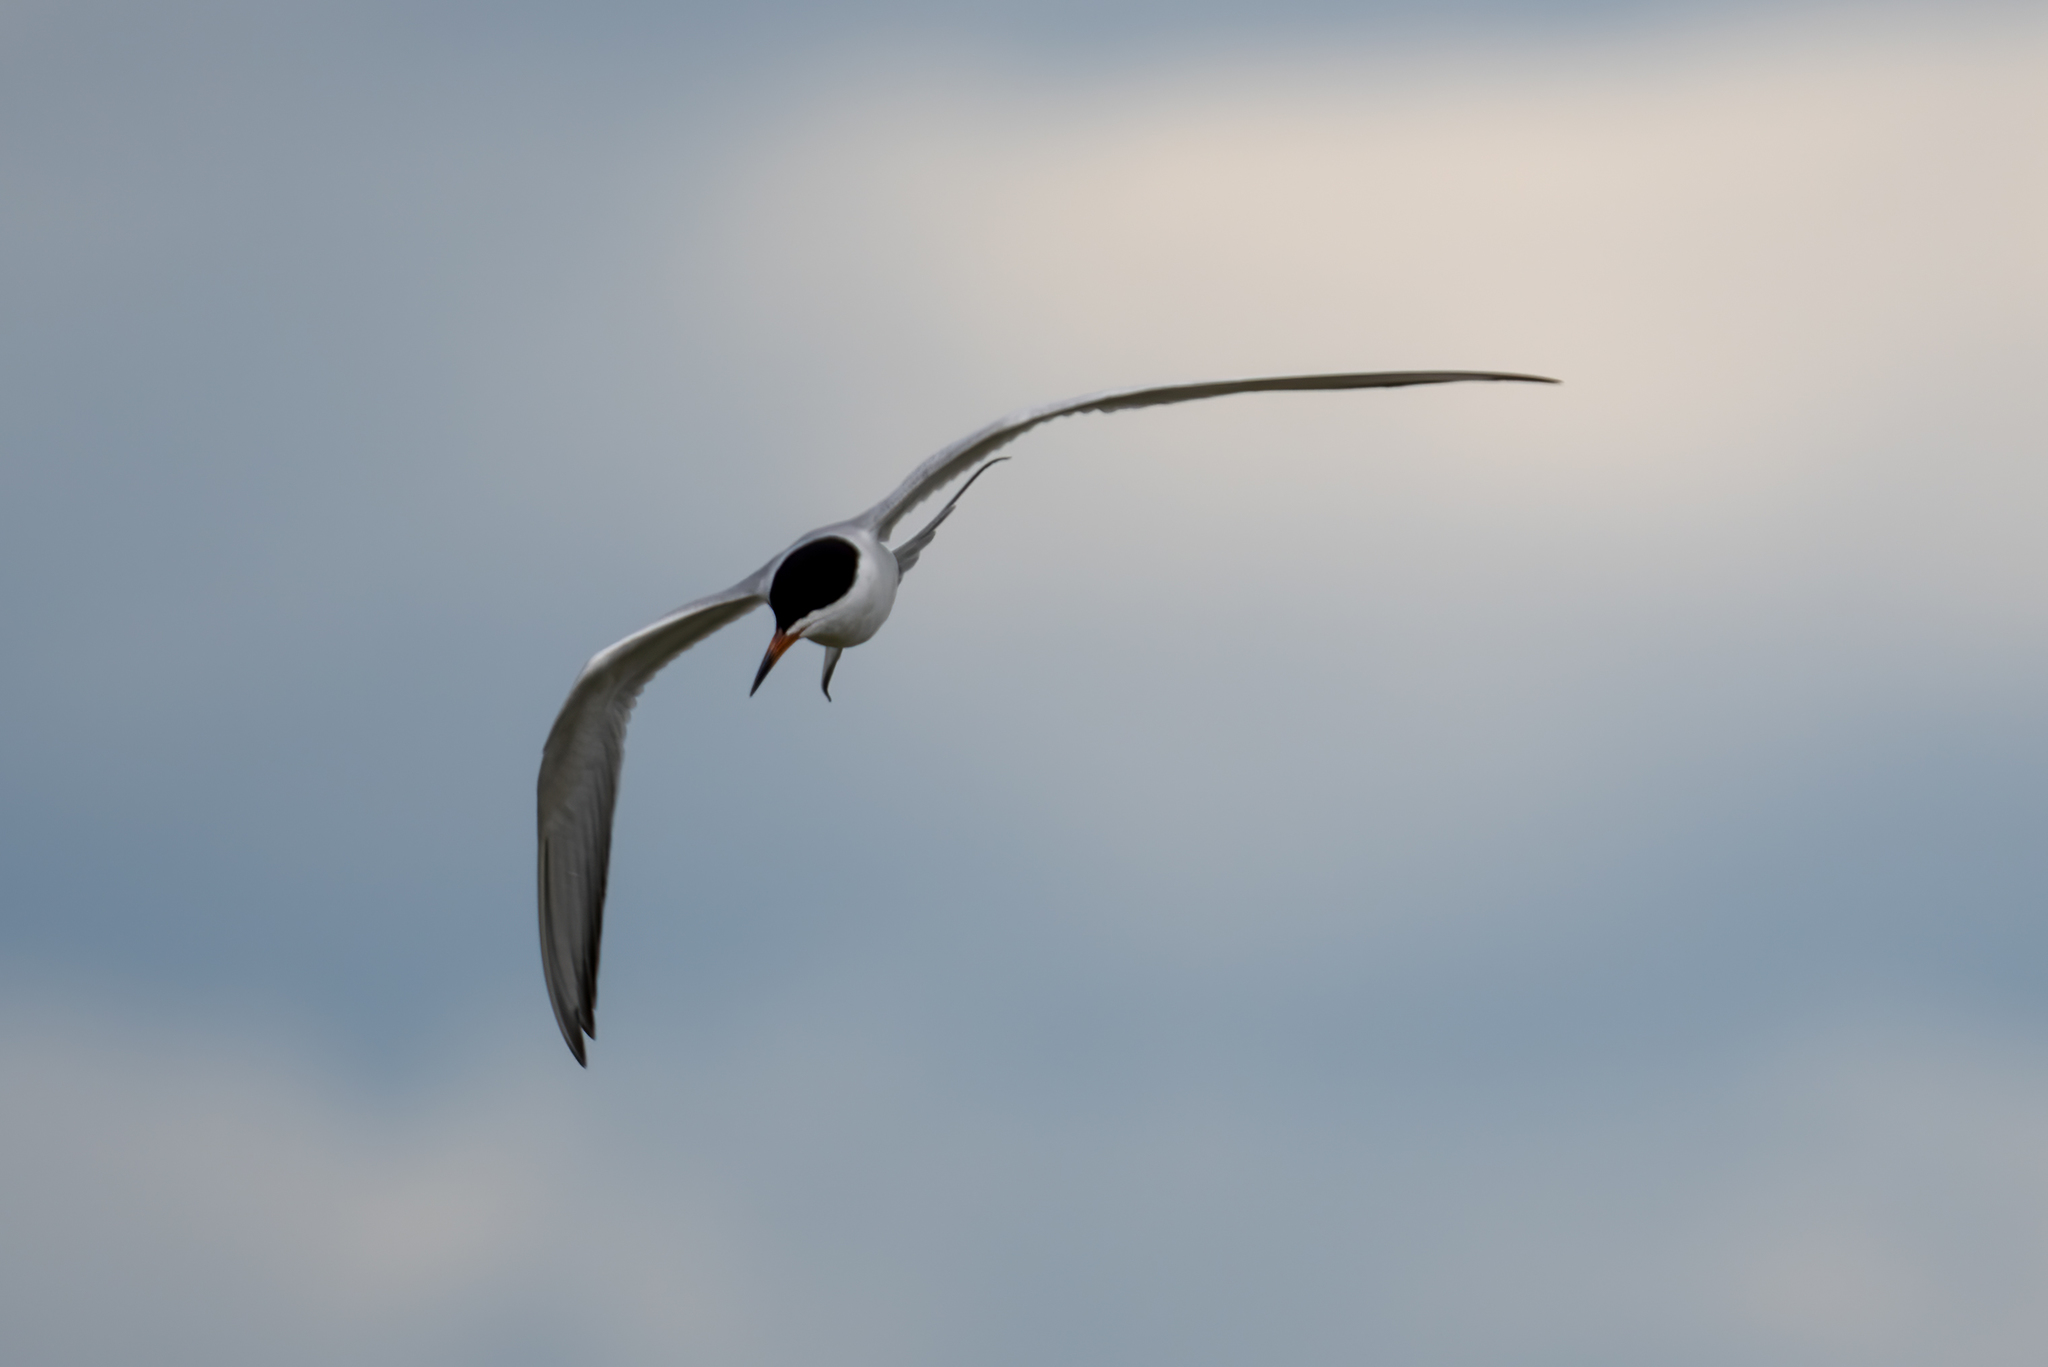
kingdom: Animalia
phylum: Chordata
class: Aves
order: Charadriiformes
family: Laridae
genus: Sterna
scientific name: Sterna forsteri
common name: Forster's tern
